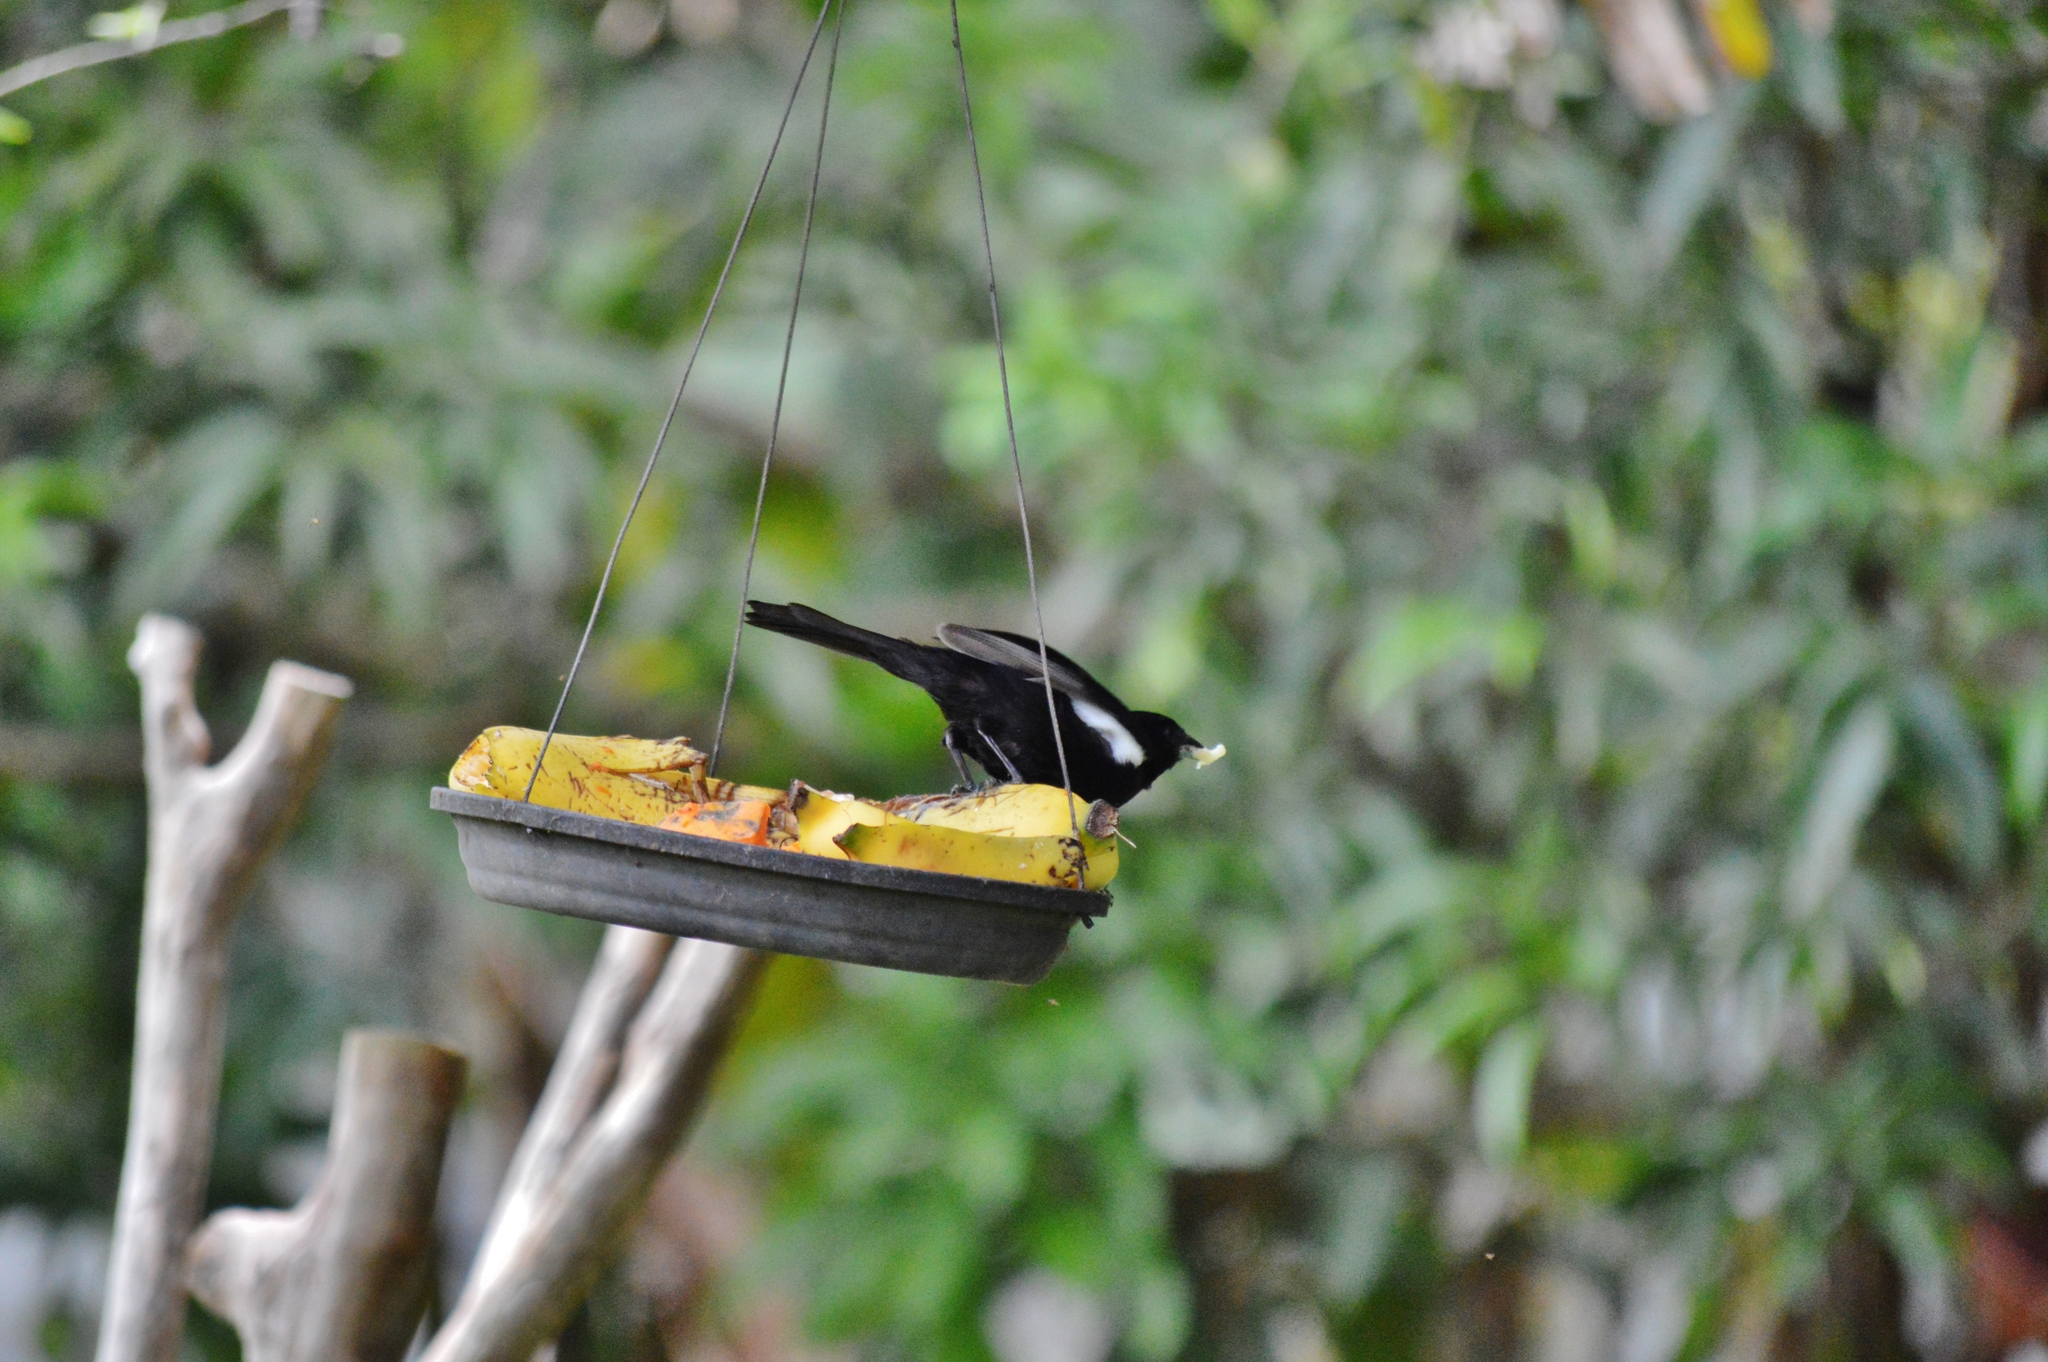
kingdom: Animalia
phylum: Chordata
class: Aves
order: Passeriformes
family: Thraupidae
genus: Tachyphonus
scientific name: Tachyphonus rufus
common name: White-lined tanager
